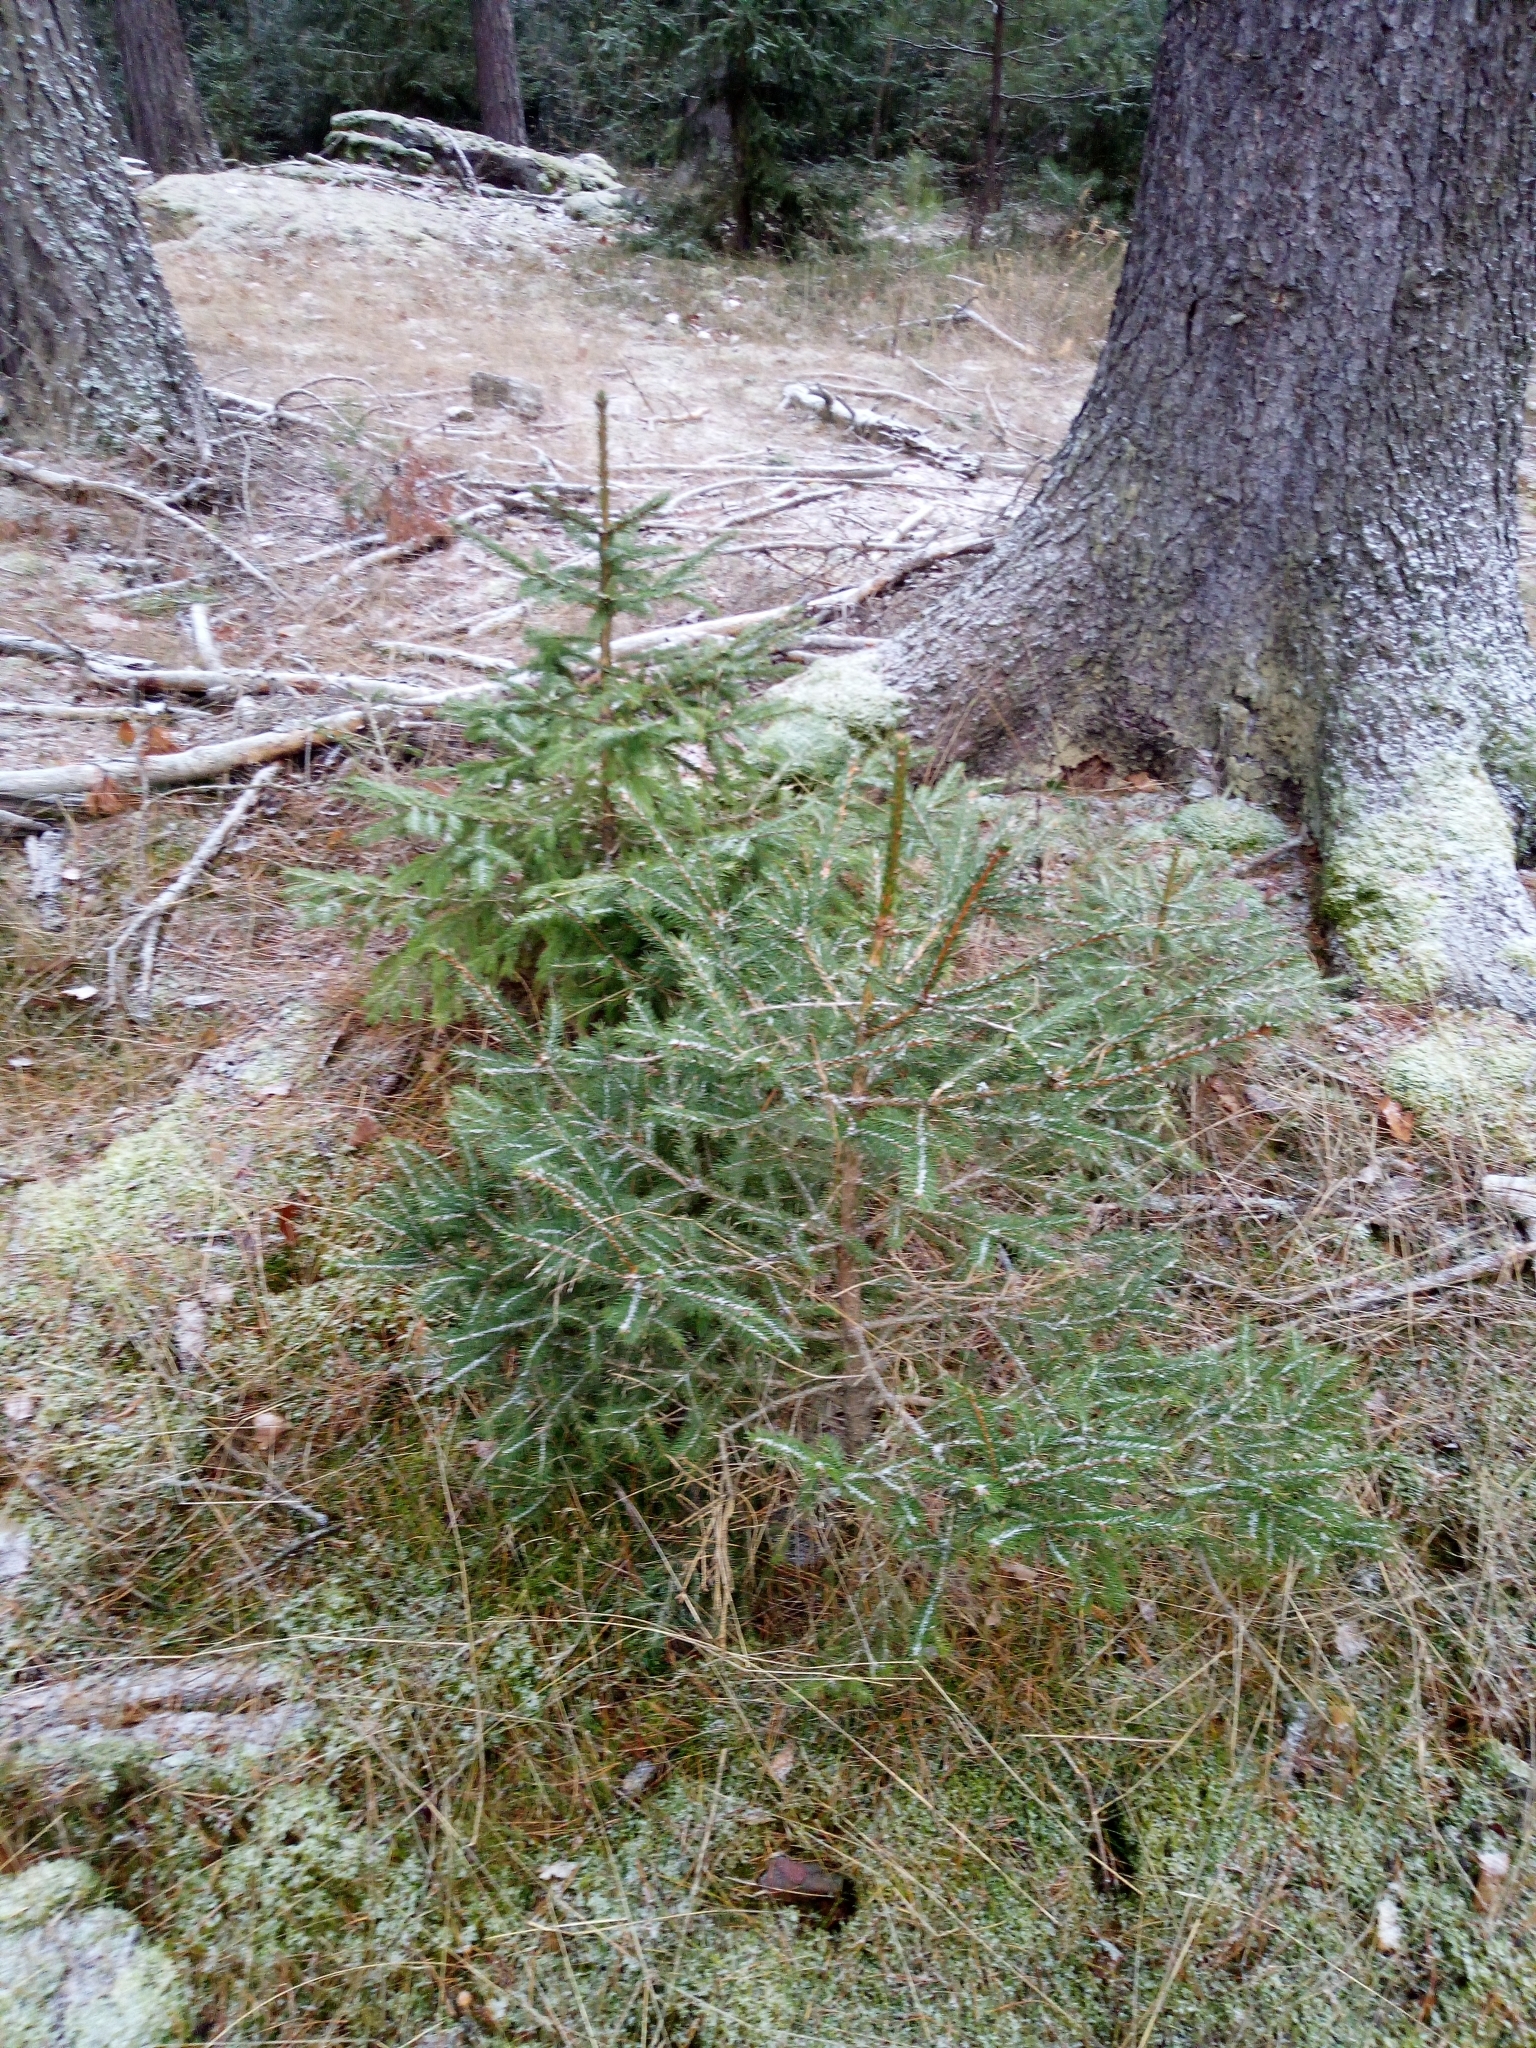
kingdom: Plantae
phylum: Tracheophyta
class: Pinopsida
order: Pinales
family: Pinaceae
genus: Picea
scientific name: Picea abies
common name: Norway spruce
